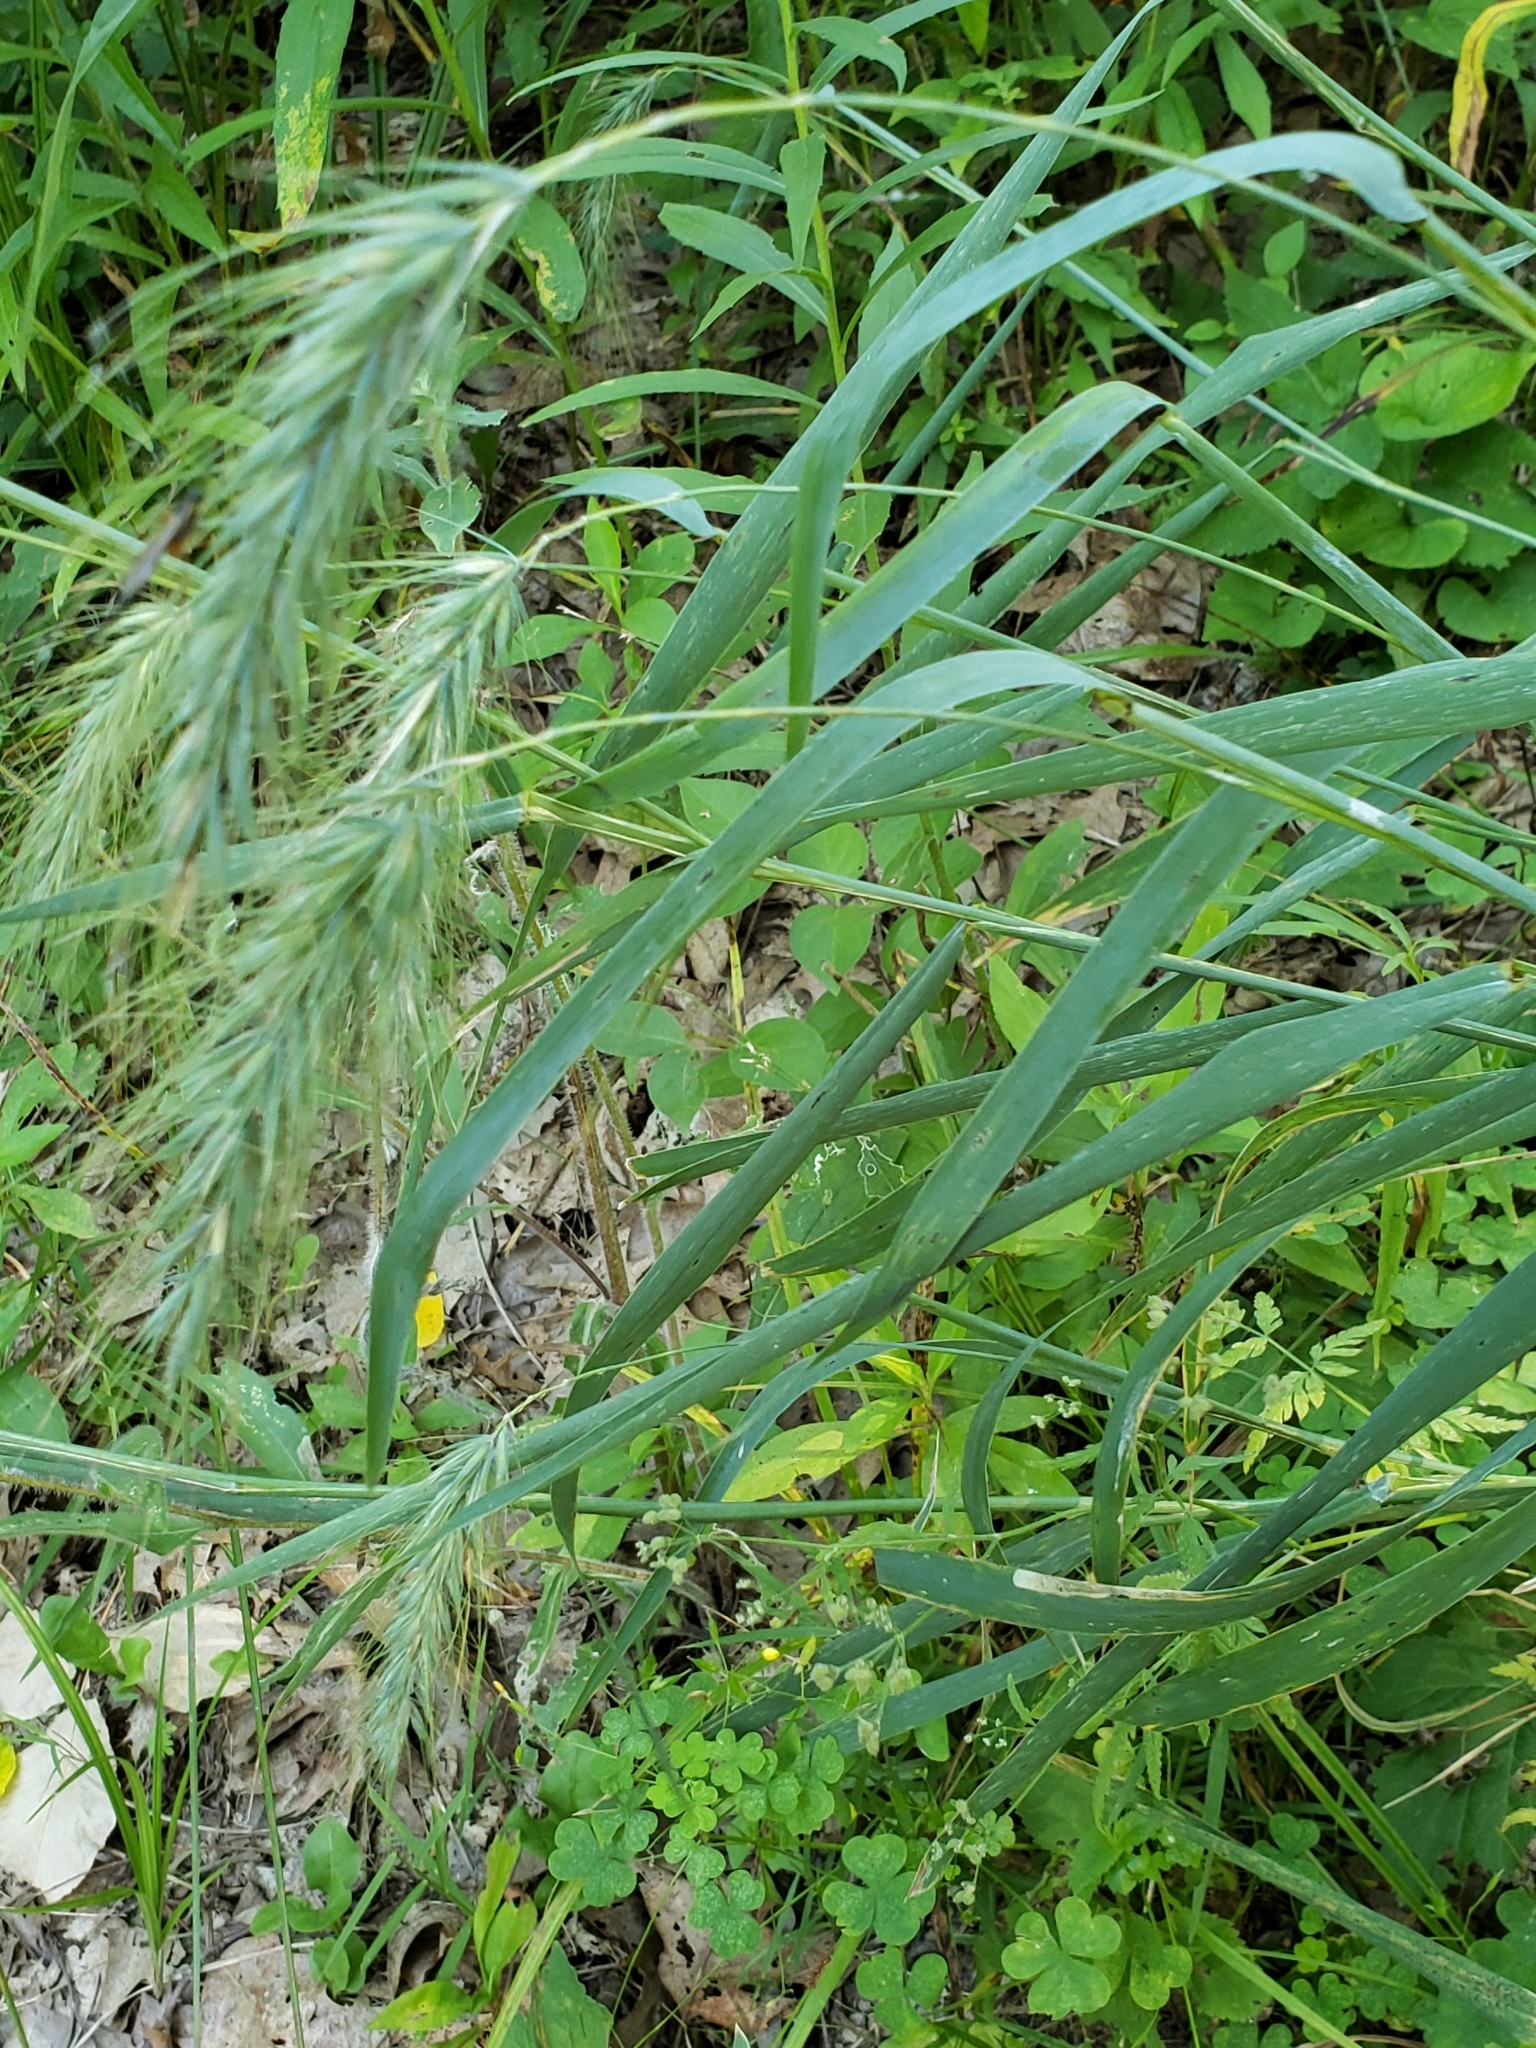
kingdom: Plantae
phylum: Tracheophyta
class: Liliopsida
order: Poales
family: Poaceae
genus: Elymus
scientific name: Elymus canadensis
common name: Canada wild rye
